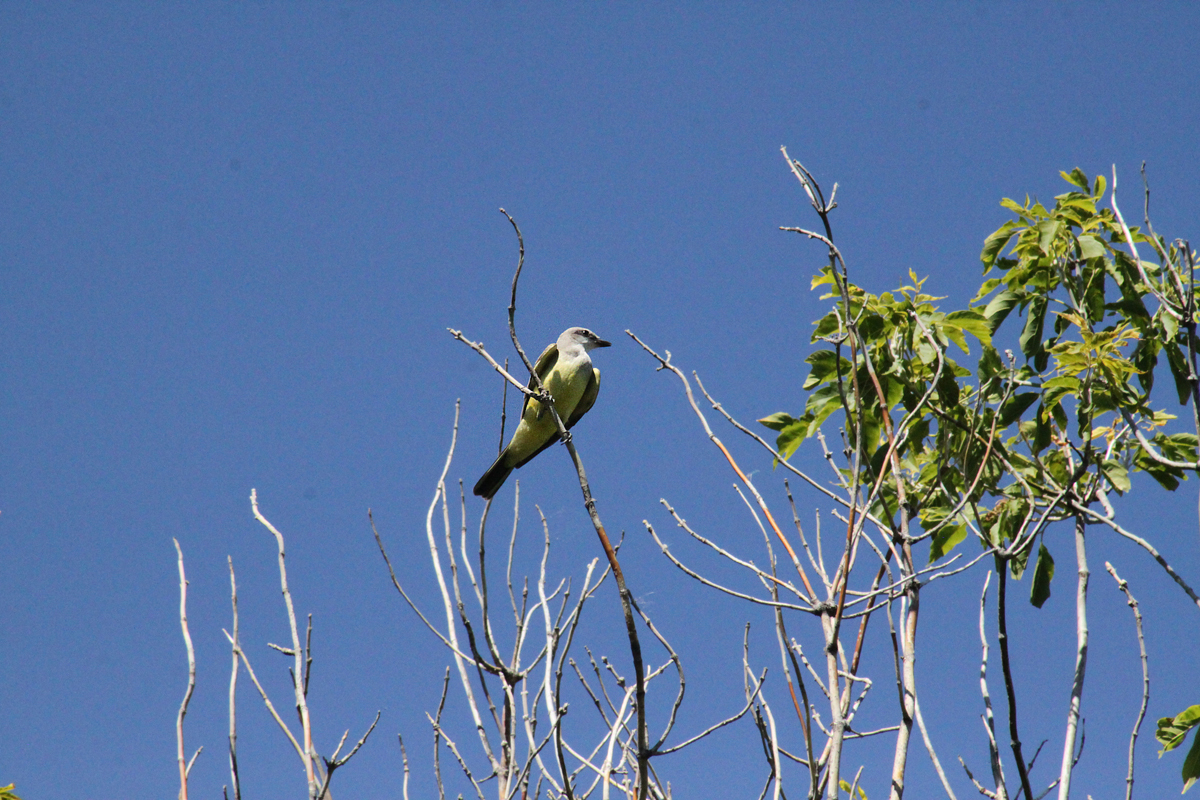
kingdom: Animalia
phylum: Chordata
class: Aves
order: Passeriformes
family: Tyrannidae
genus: Tyrannus
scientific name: Tyrannus verticalis
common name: Western kingbird
